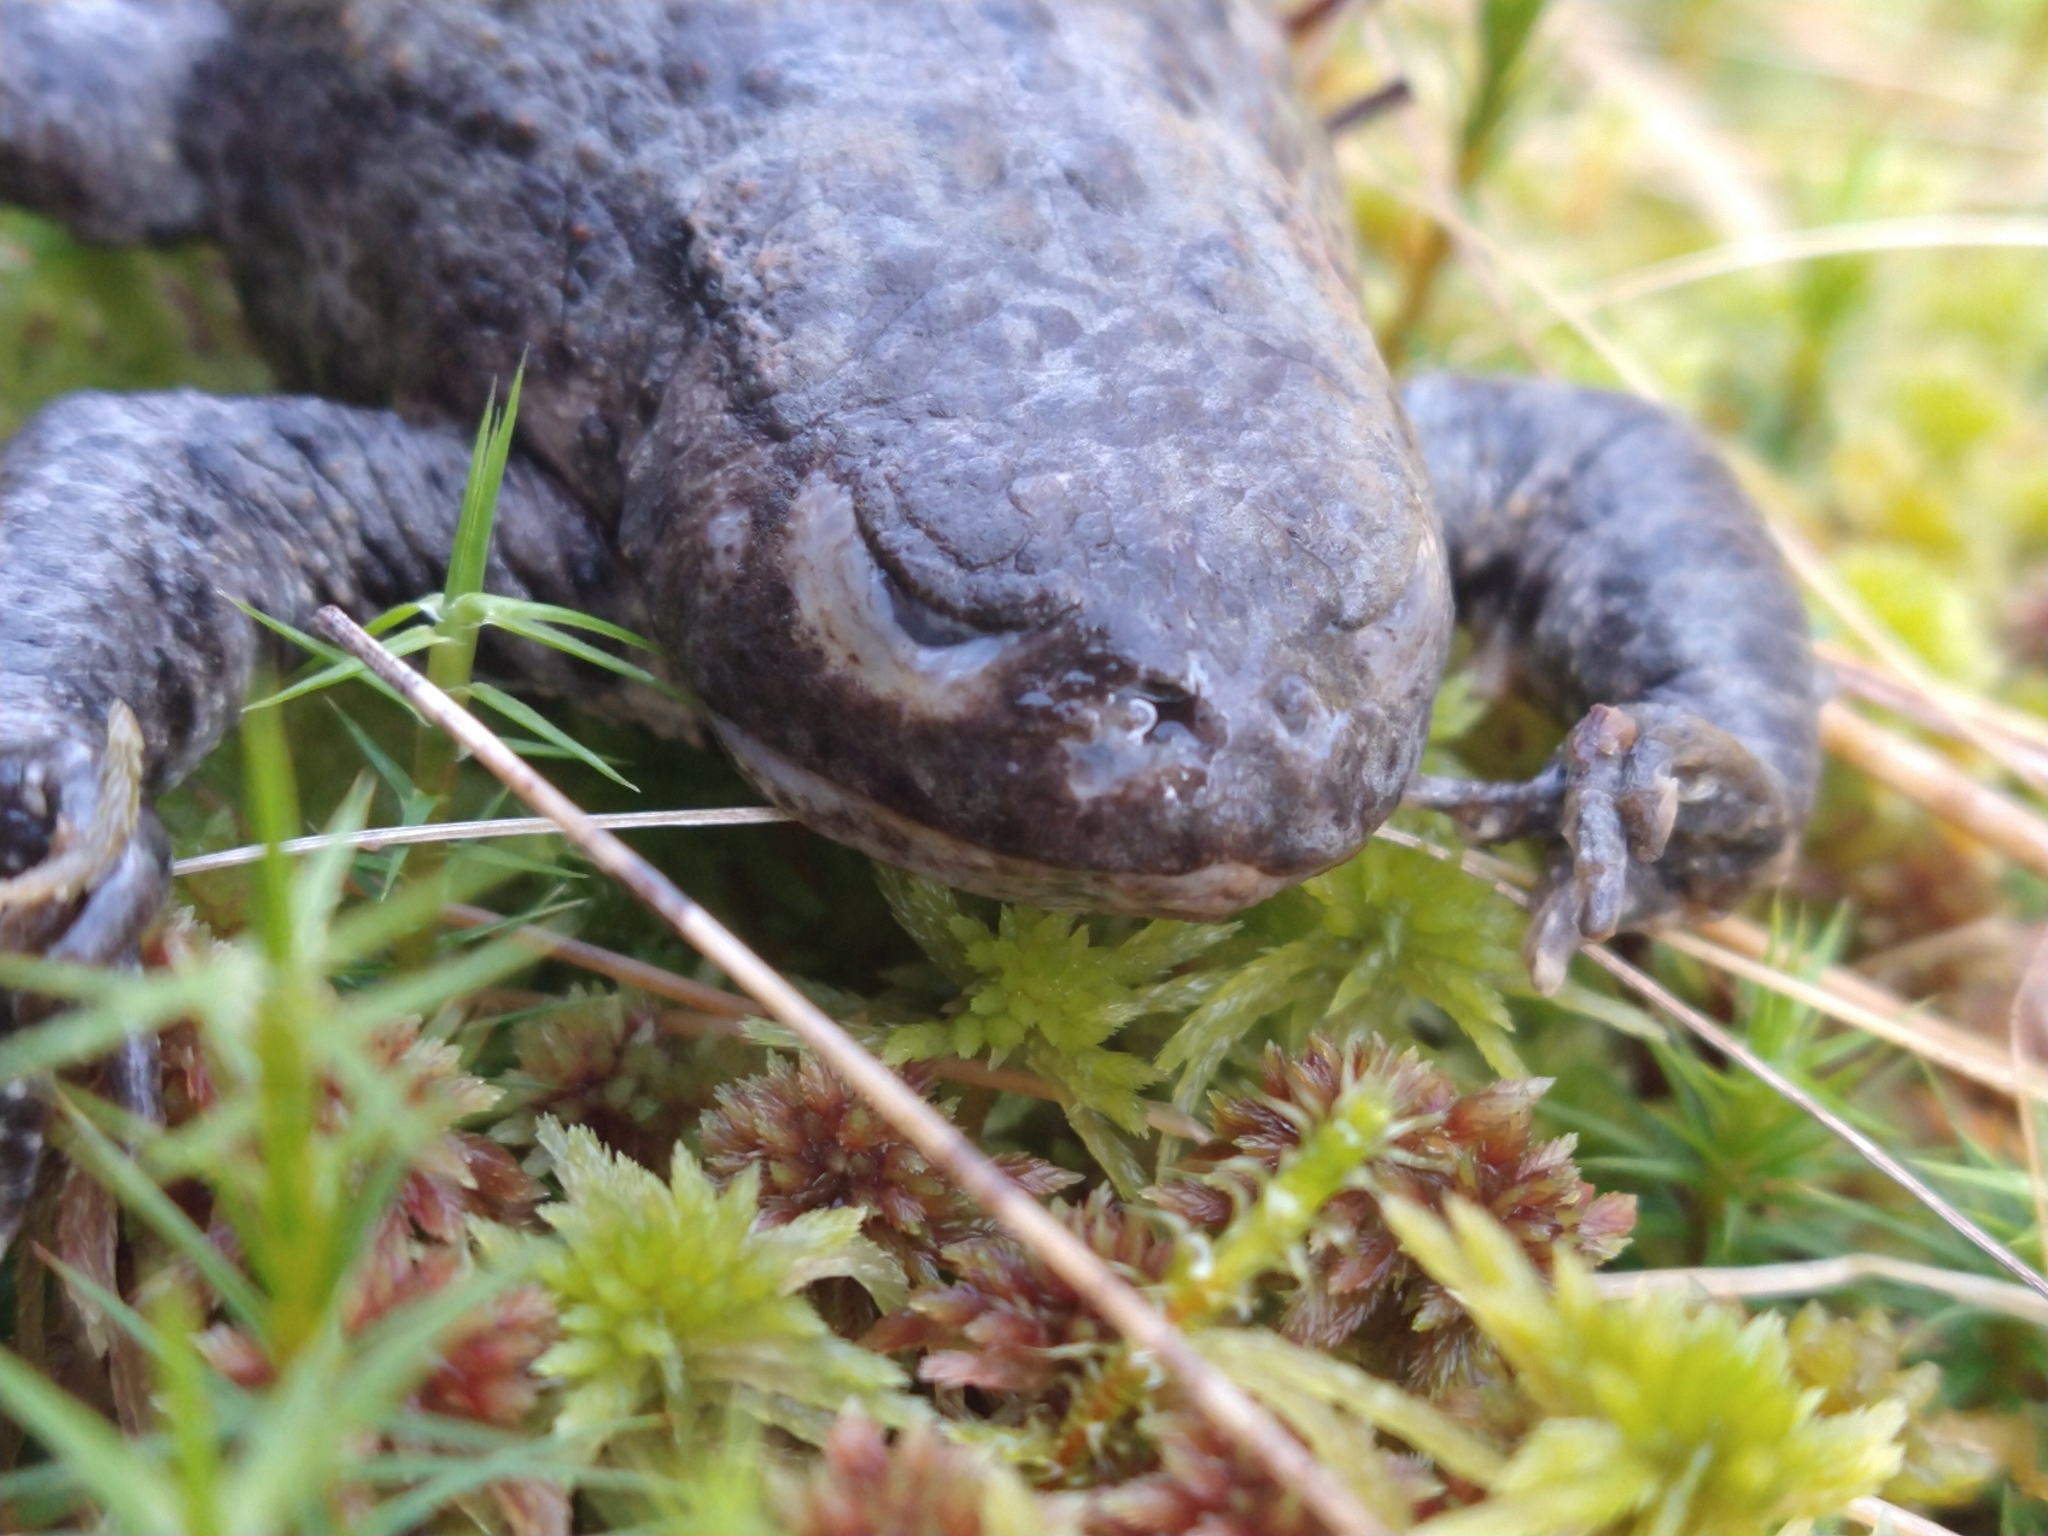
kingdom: Animalia
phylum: Chordata
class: Amphibia
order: Anura
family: Bufonidae
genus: Bufo
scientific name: Bufo bufo
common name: Common toad
